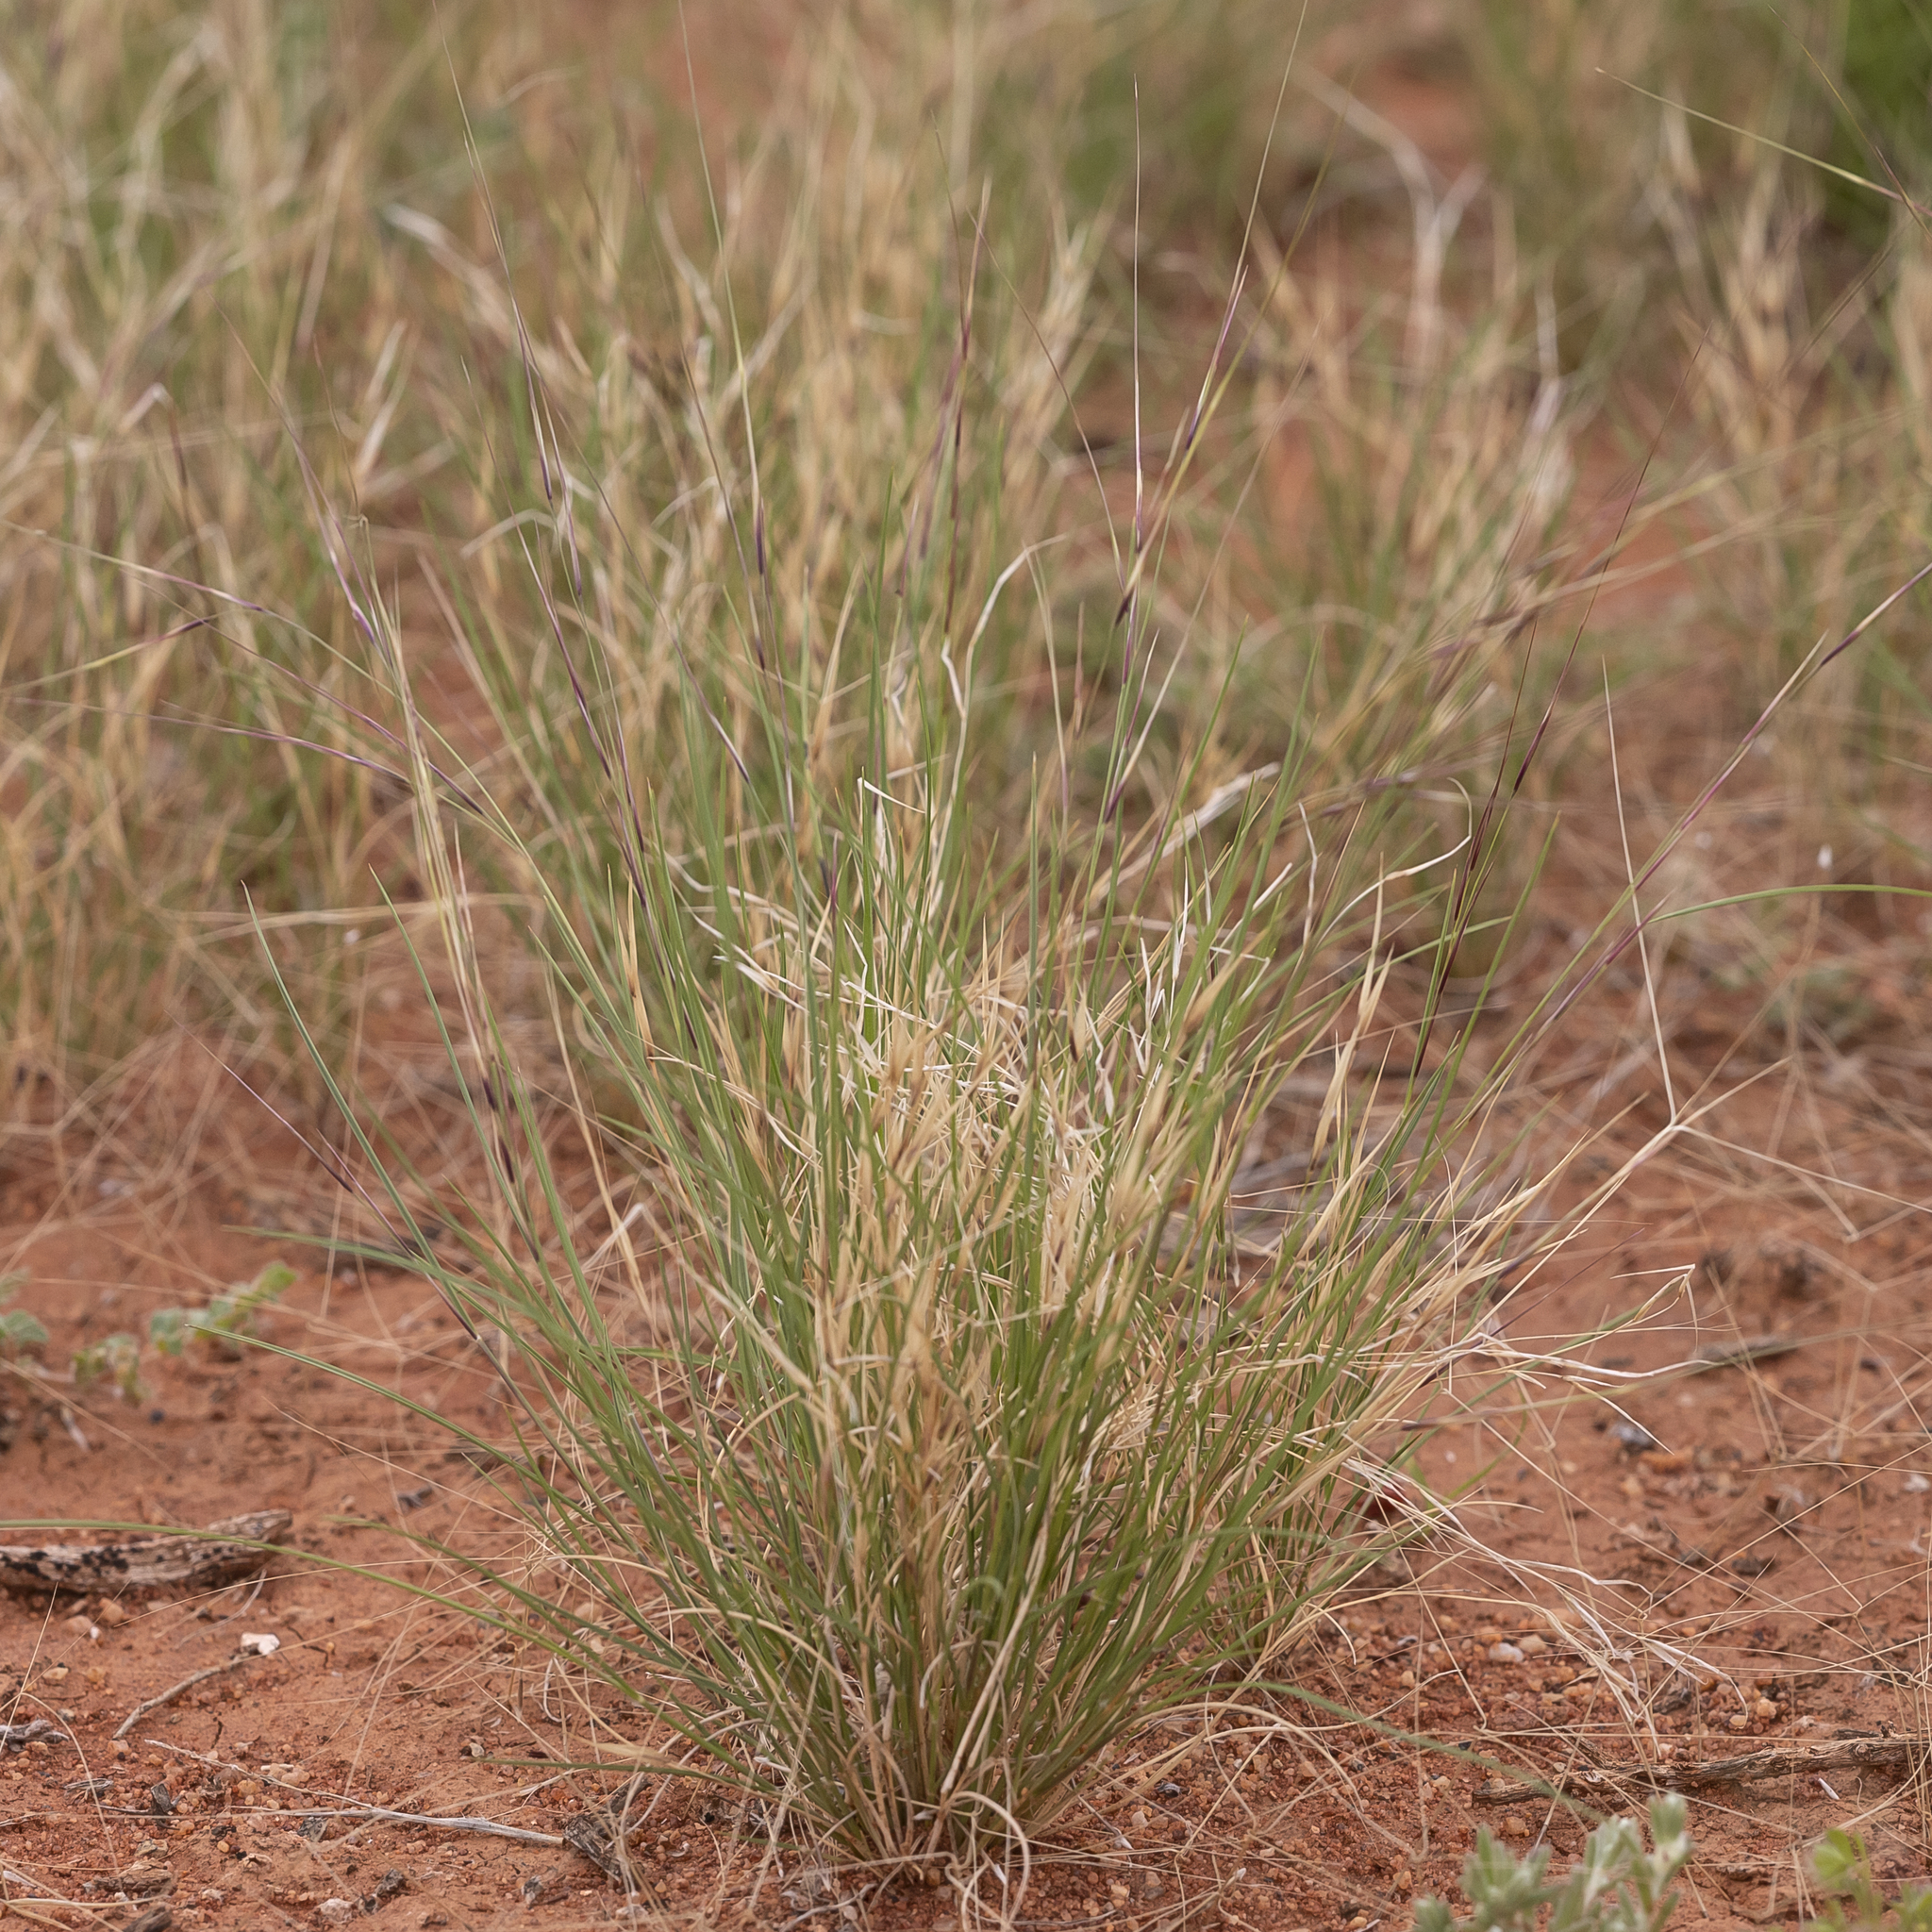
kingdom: Plantae
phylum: Tracheophyta
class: Liliopsida
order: Poales
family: Poaceae
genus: Aristida
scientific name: Aristida contorta
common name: Bunch kerosene grass
